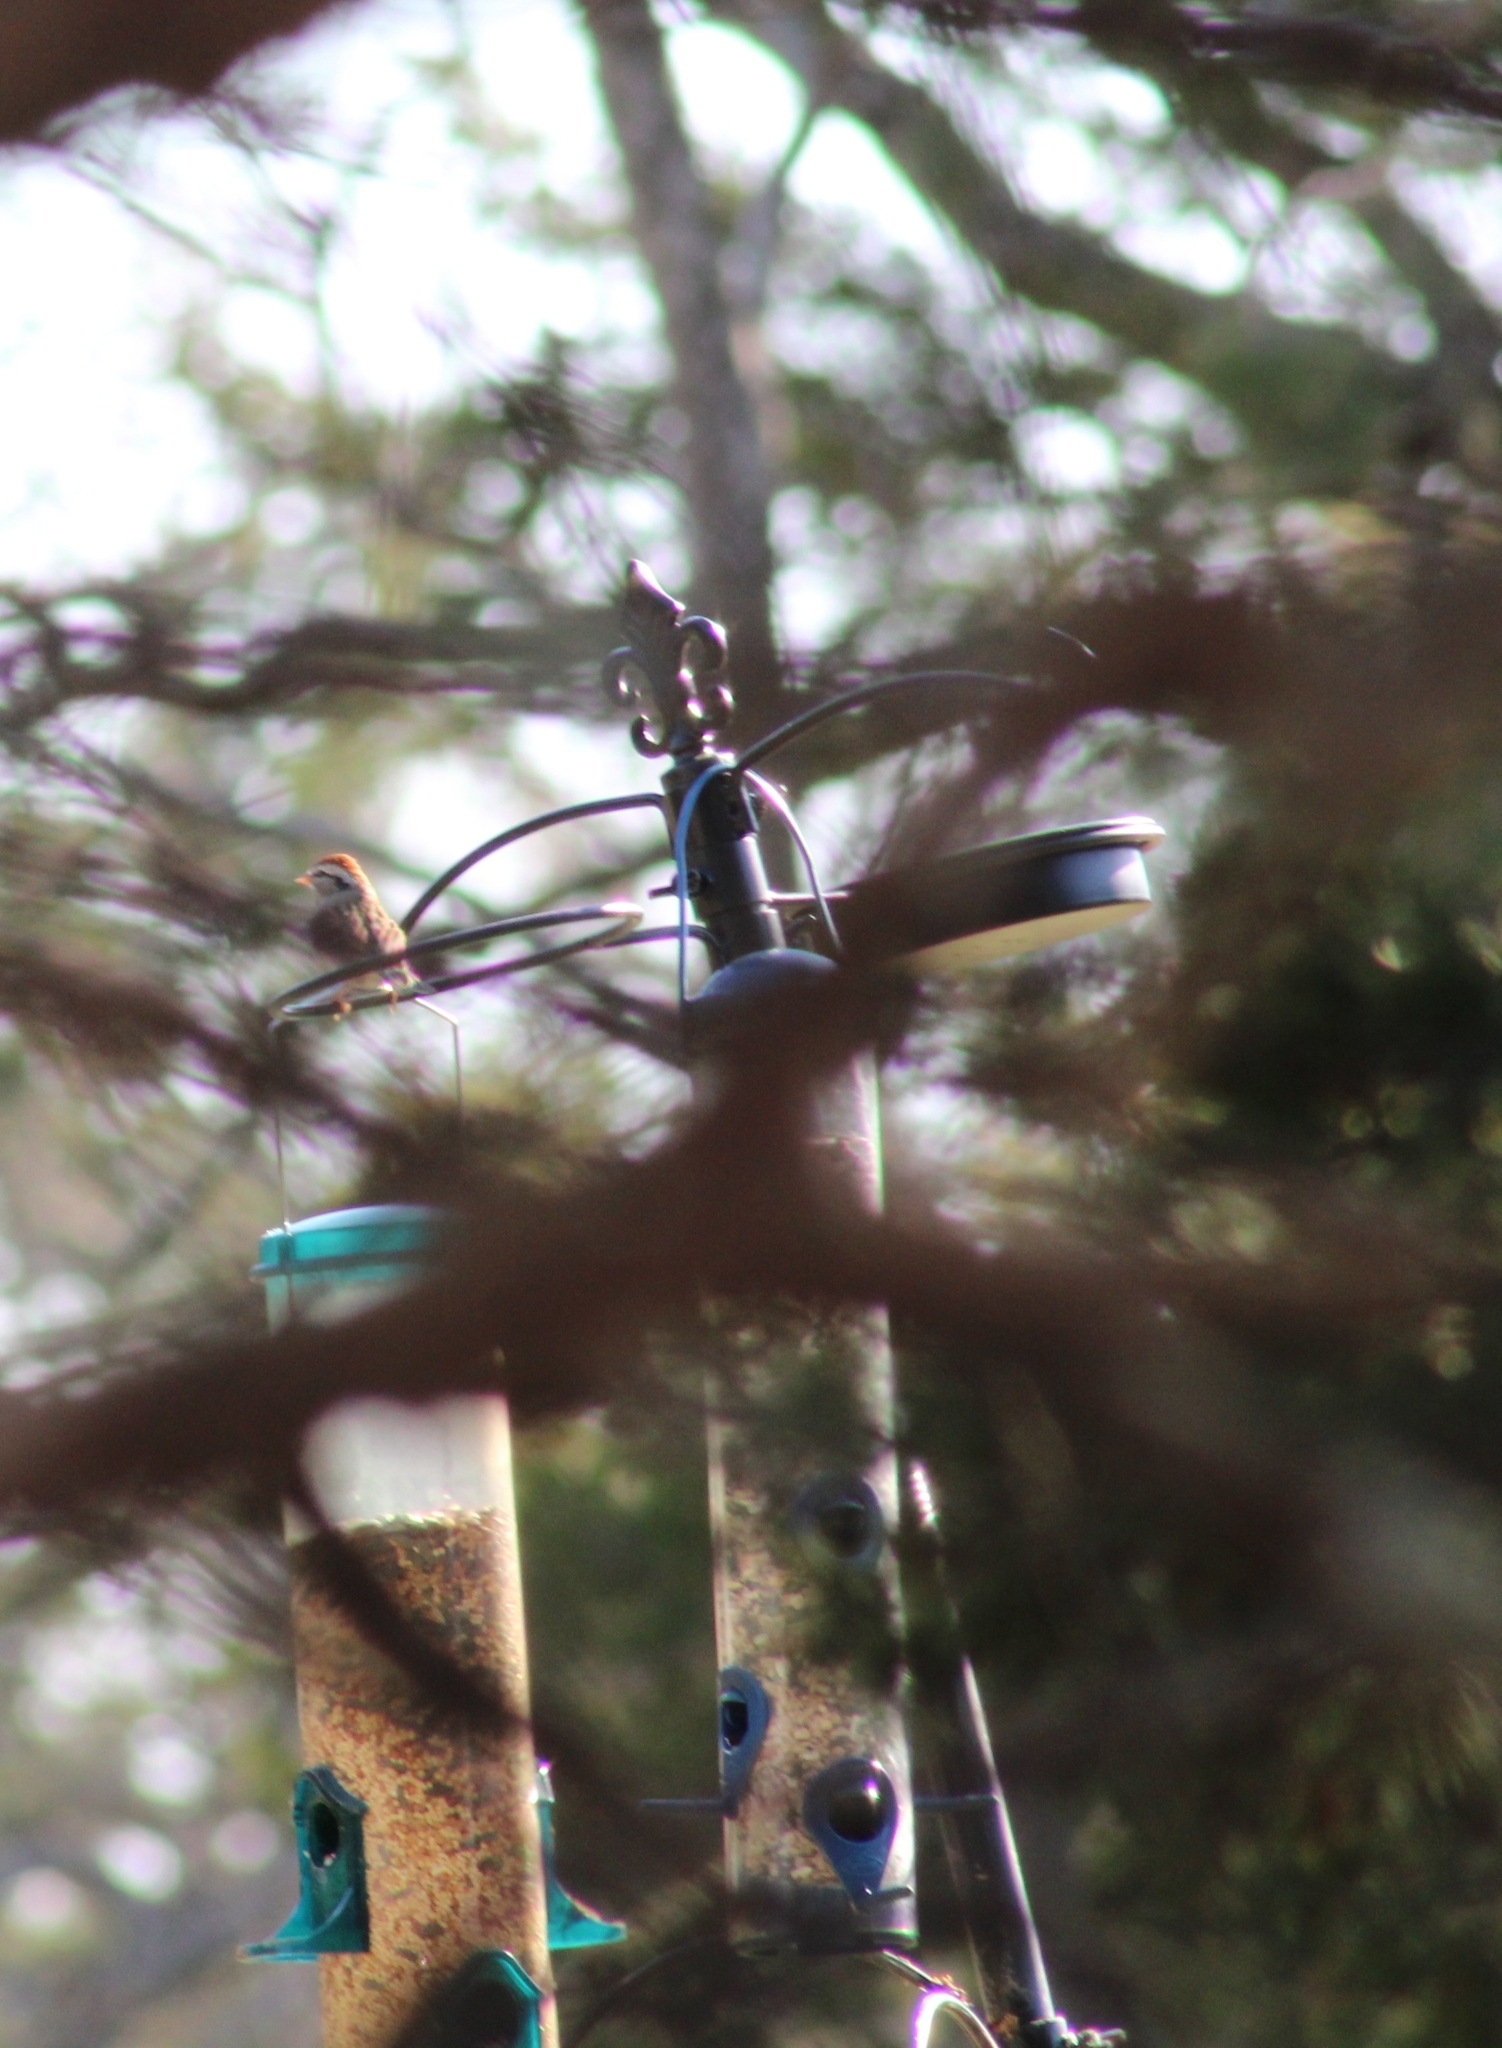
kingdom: Animalia
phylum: Chordata
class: Aves
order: Passeriformes
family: Passerellidae
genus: Spizella
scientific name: Spizella passerina
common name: Chipping sparrow
